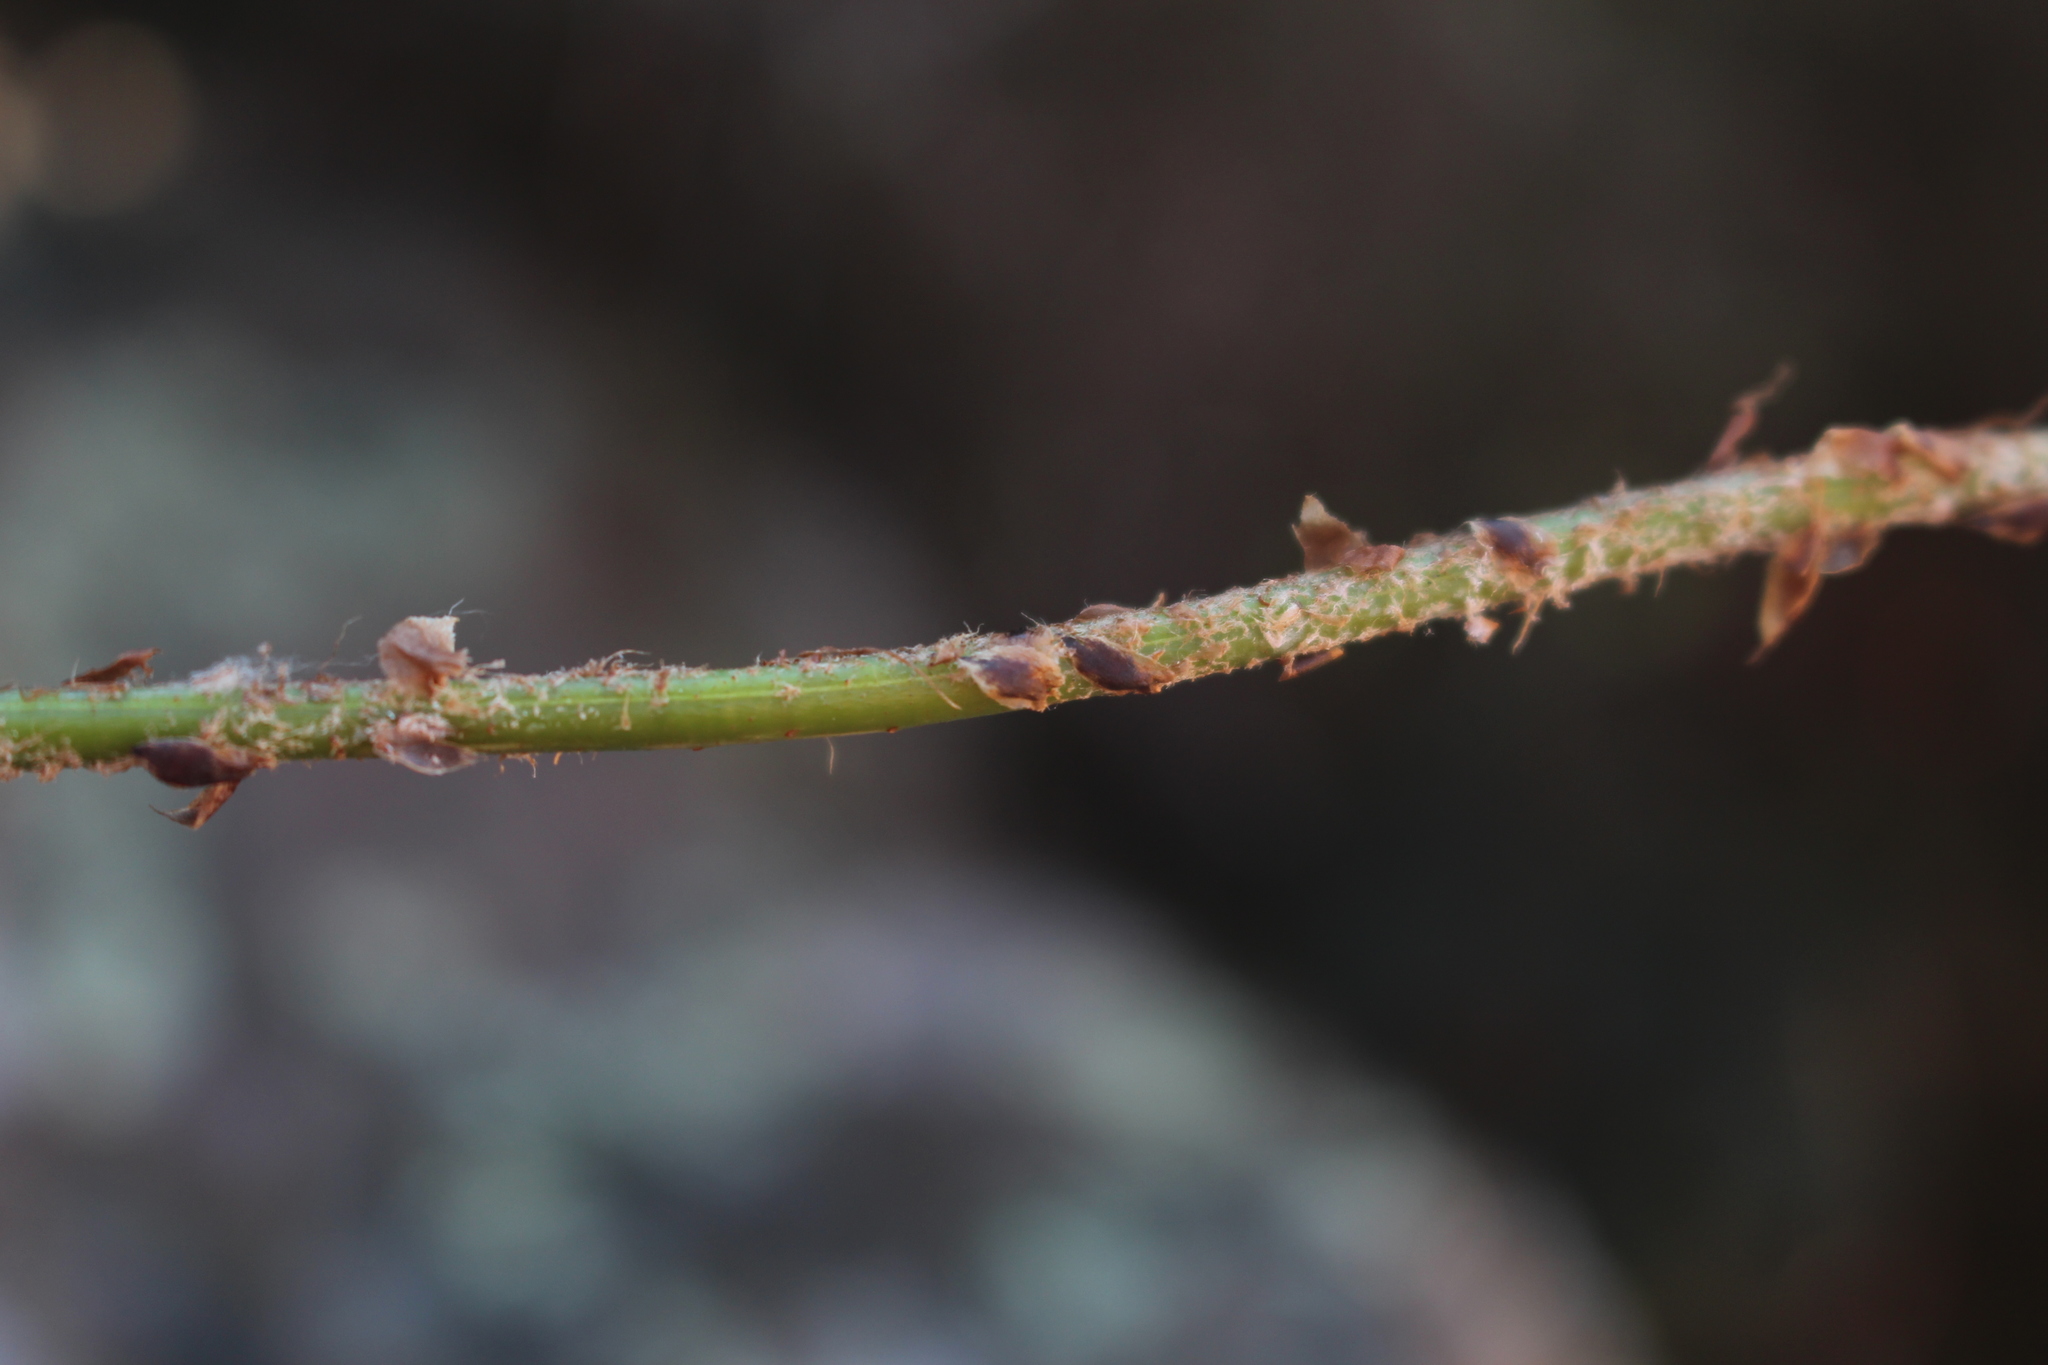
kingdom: Plantae
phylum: Tracheophyta
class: Polypodiopsida
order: Polypodiales
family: Dryopteridaceae
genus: Polystichum
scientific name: Polystichum oculatum
